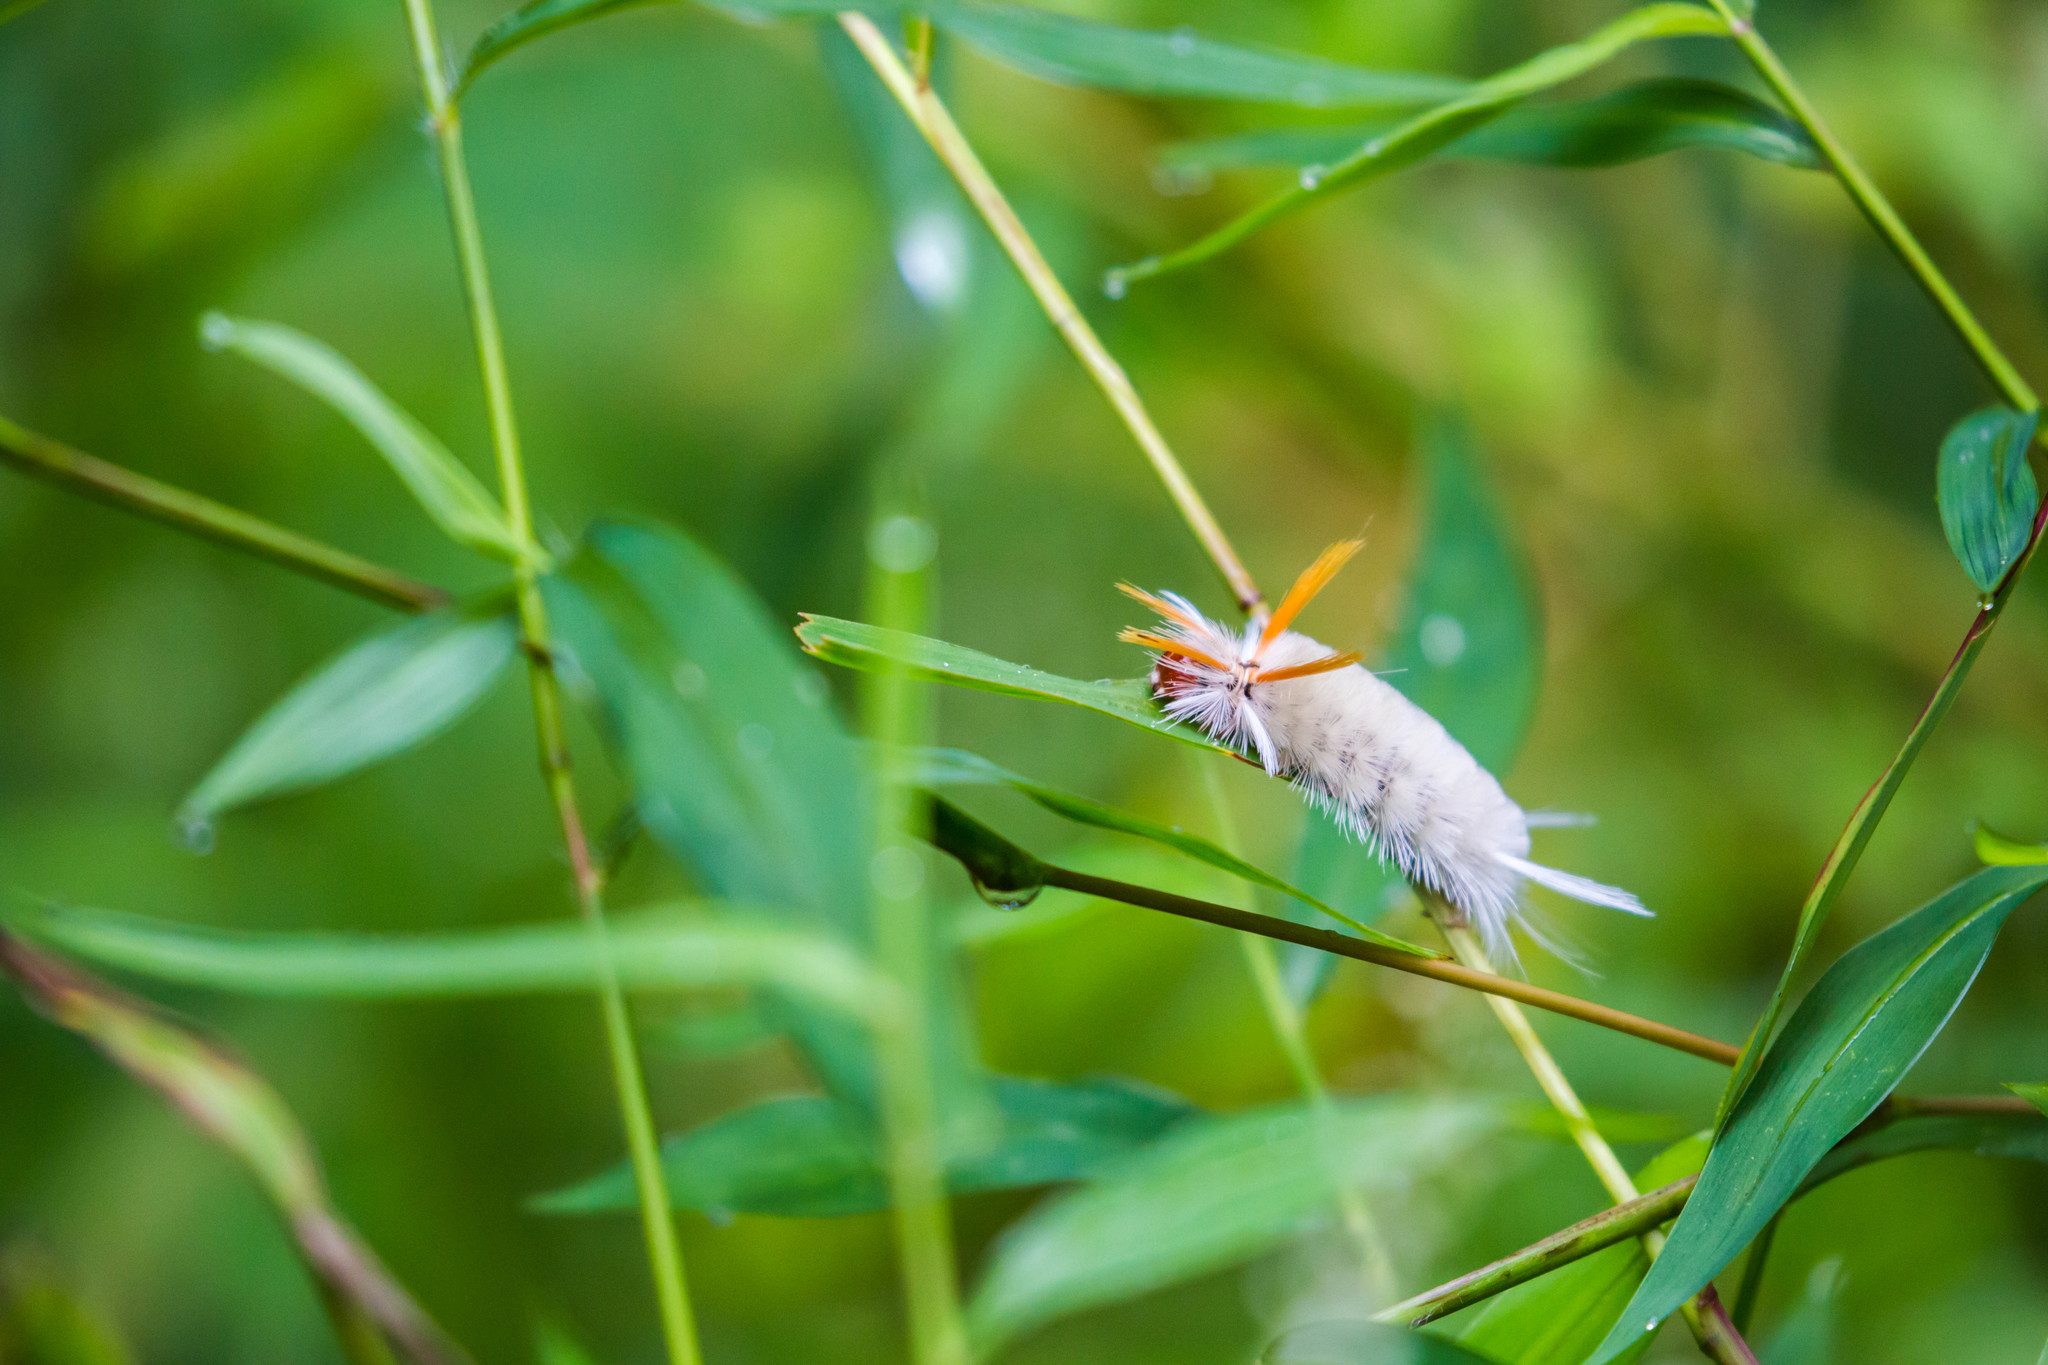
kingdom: Animalia
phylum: Arthropoda
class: Insecta
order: Lepidoptera
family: Erebidae
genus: Halysidota
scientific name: Halysidota harrisii
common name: Sycamore tussock moth
